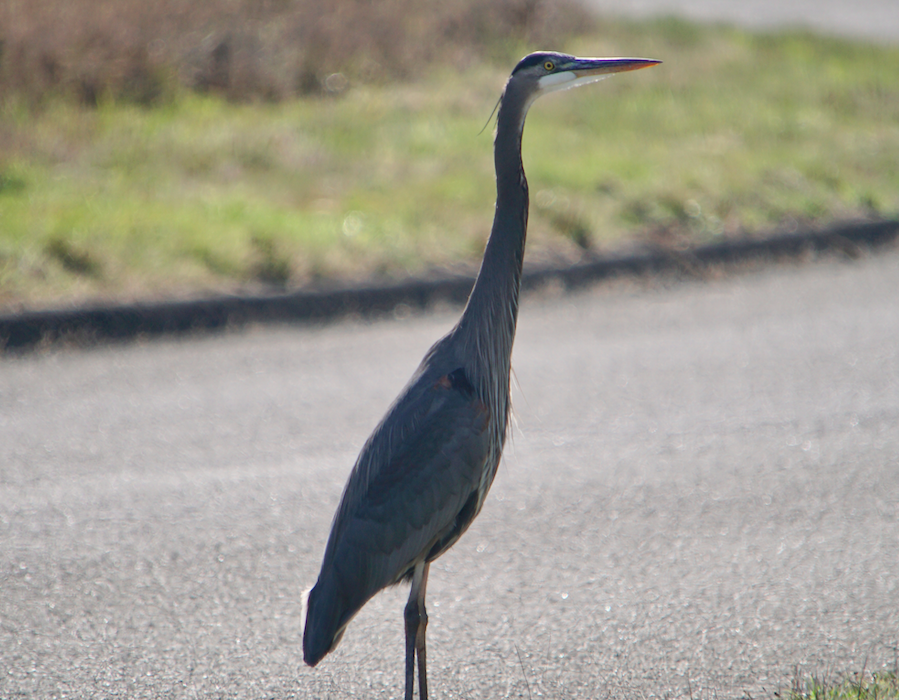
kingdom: Animalia
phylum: Chordata
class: Aves
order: Pelecaniformes
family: Ardeidae
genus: Ardea
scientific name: Ardea herodias
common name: Great blue heron
